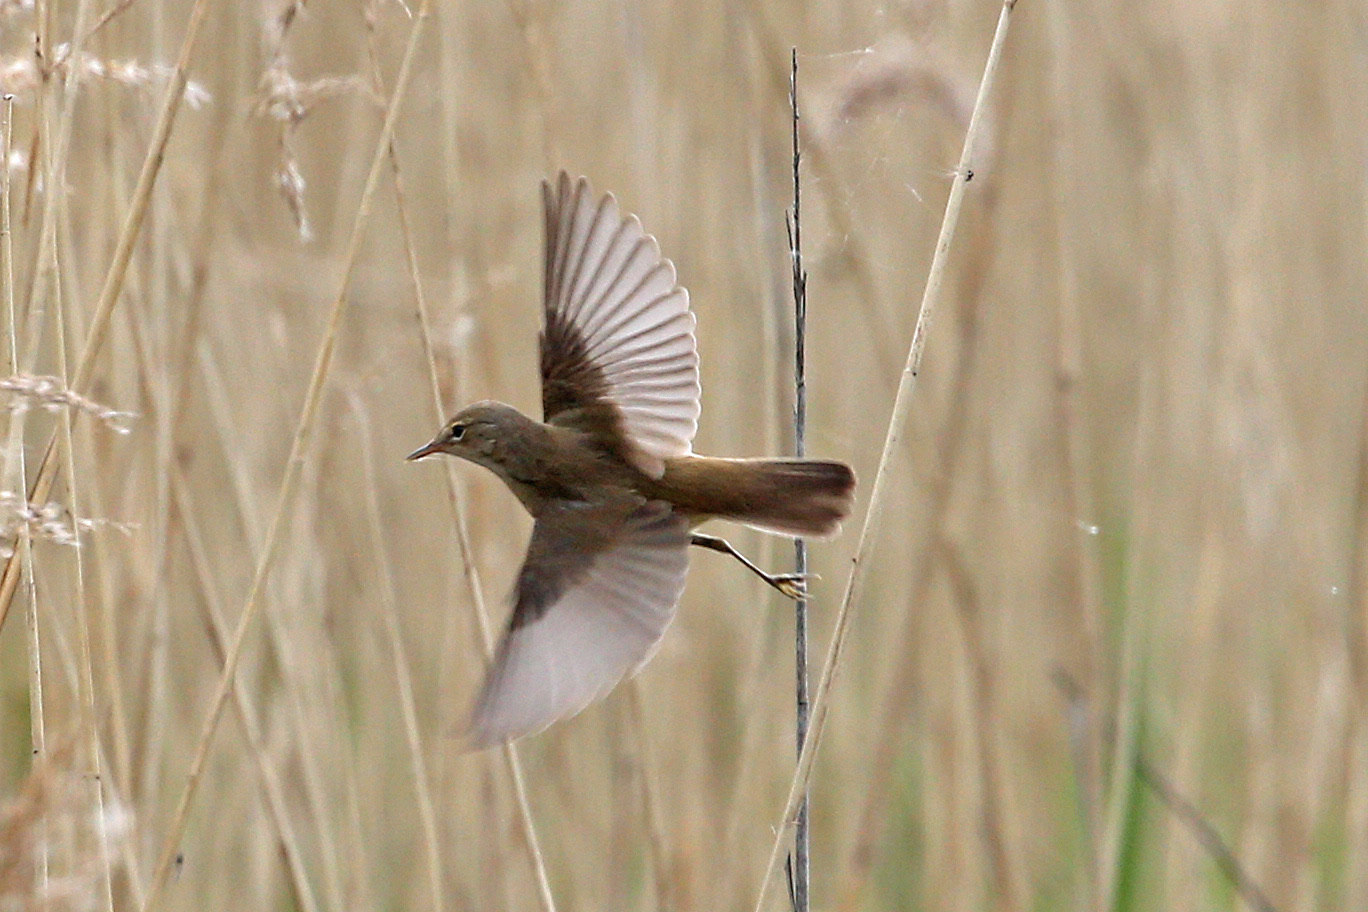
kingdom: Animalia
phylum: Chordata
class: Aves
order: Passeriformes
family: Acrocephalidae
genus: Acrocephalus
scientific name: Acrocephalus scirpaceus
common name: Eurasian reed warbler
